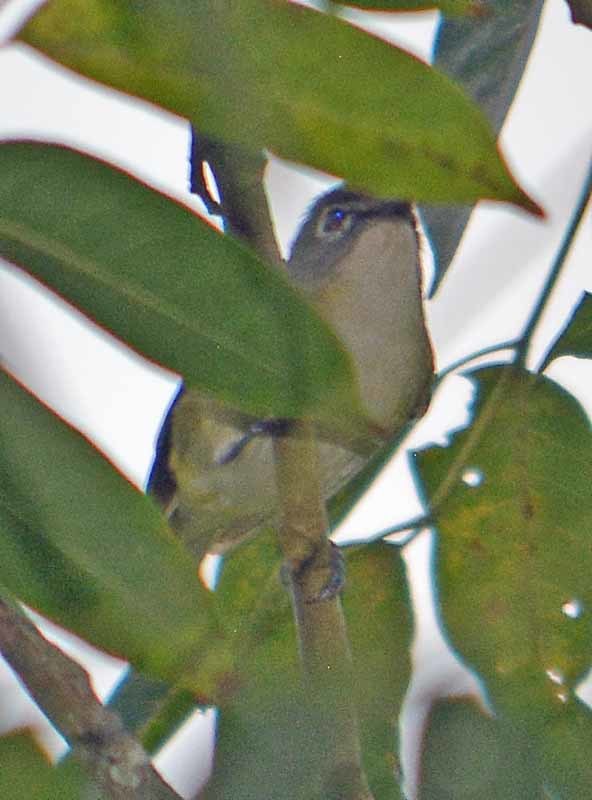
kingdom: Animalia
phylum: Chordata
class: Aves
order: Passeriformes
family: Vireonidae
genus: Vireo
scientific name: Vireo solitarius
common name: Blue-headed vireo
